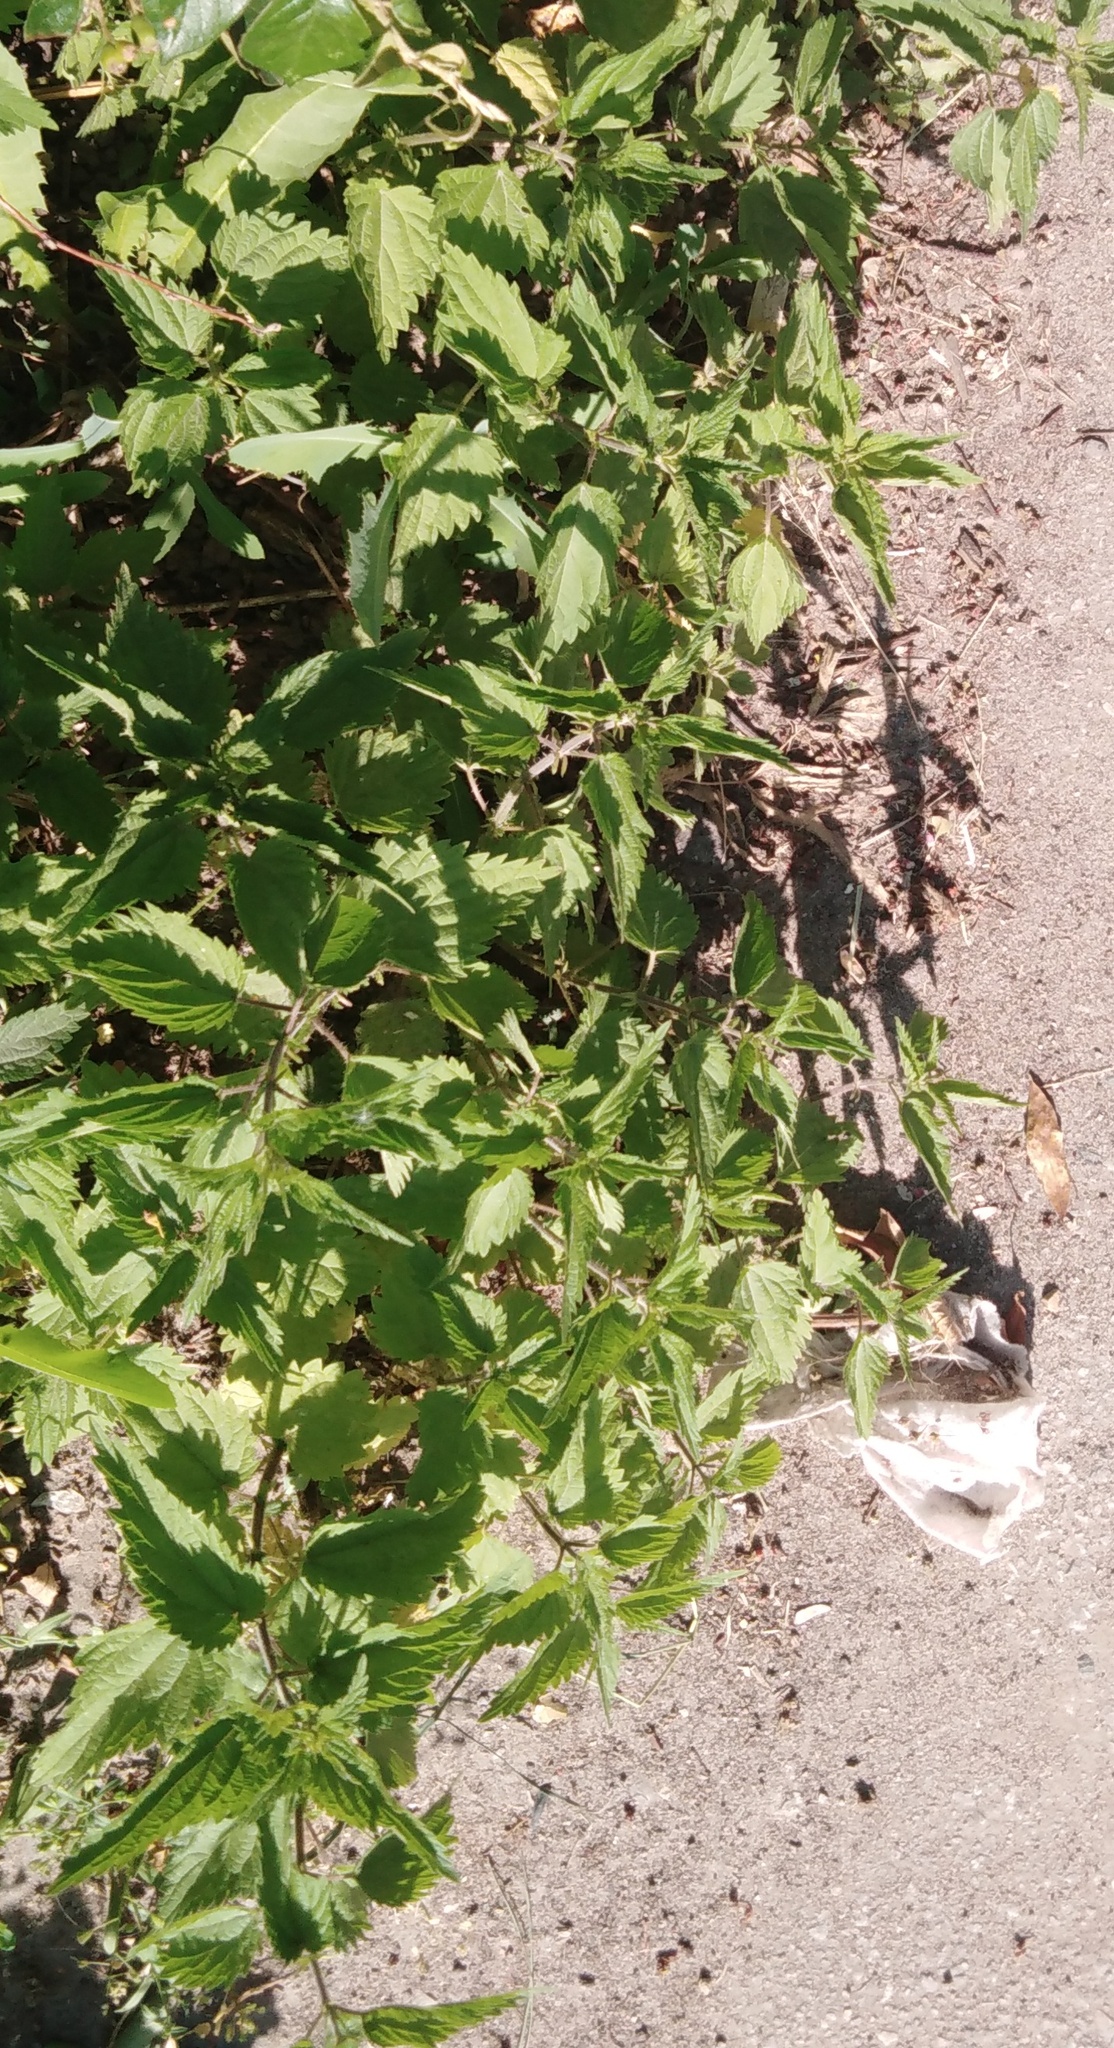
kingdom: Plantae
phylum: Tracheophyta
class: Magnoliopsida
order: Rosales
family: Urticaceae
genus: Urtica
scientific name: Urtica dioica
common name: Common nettle
